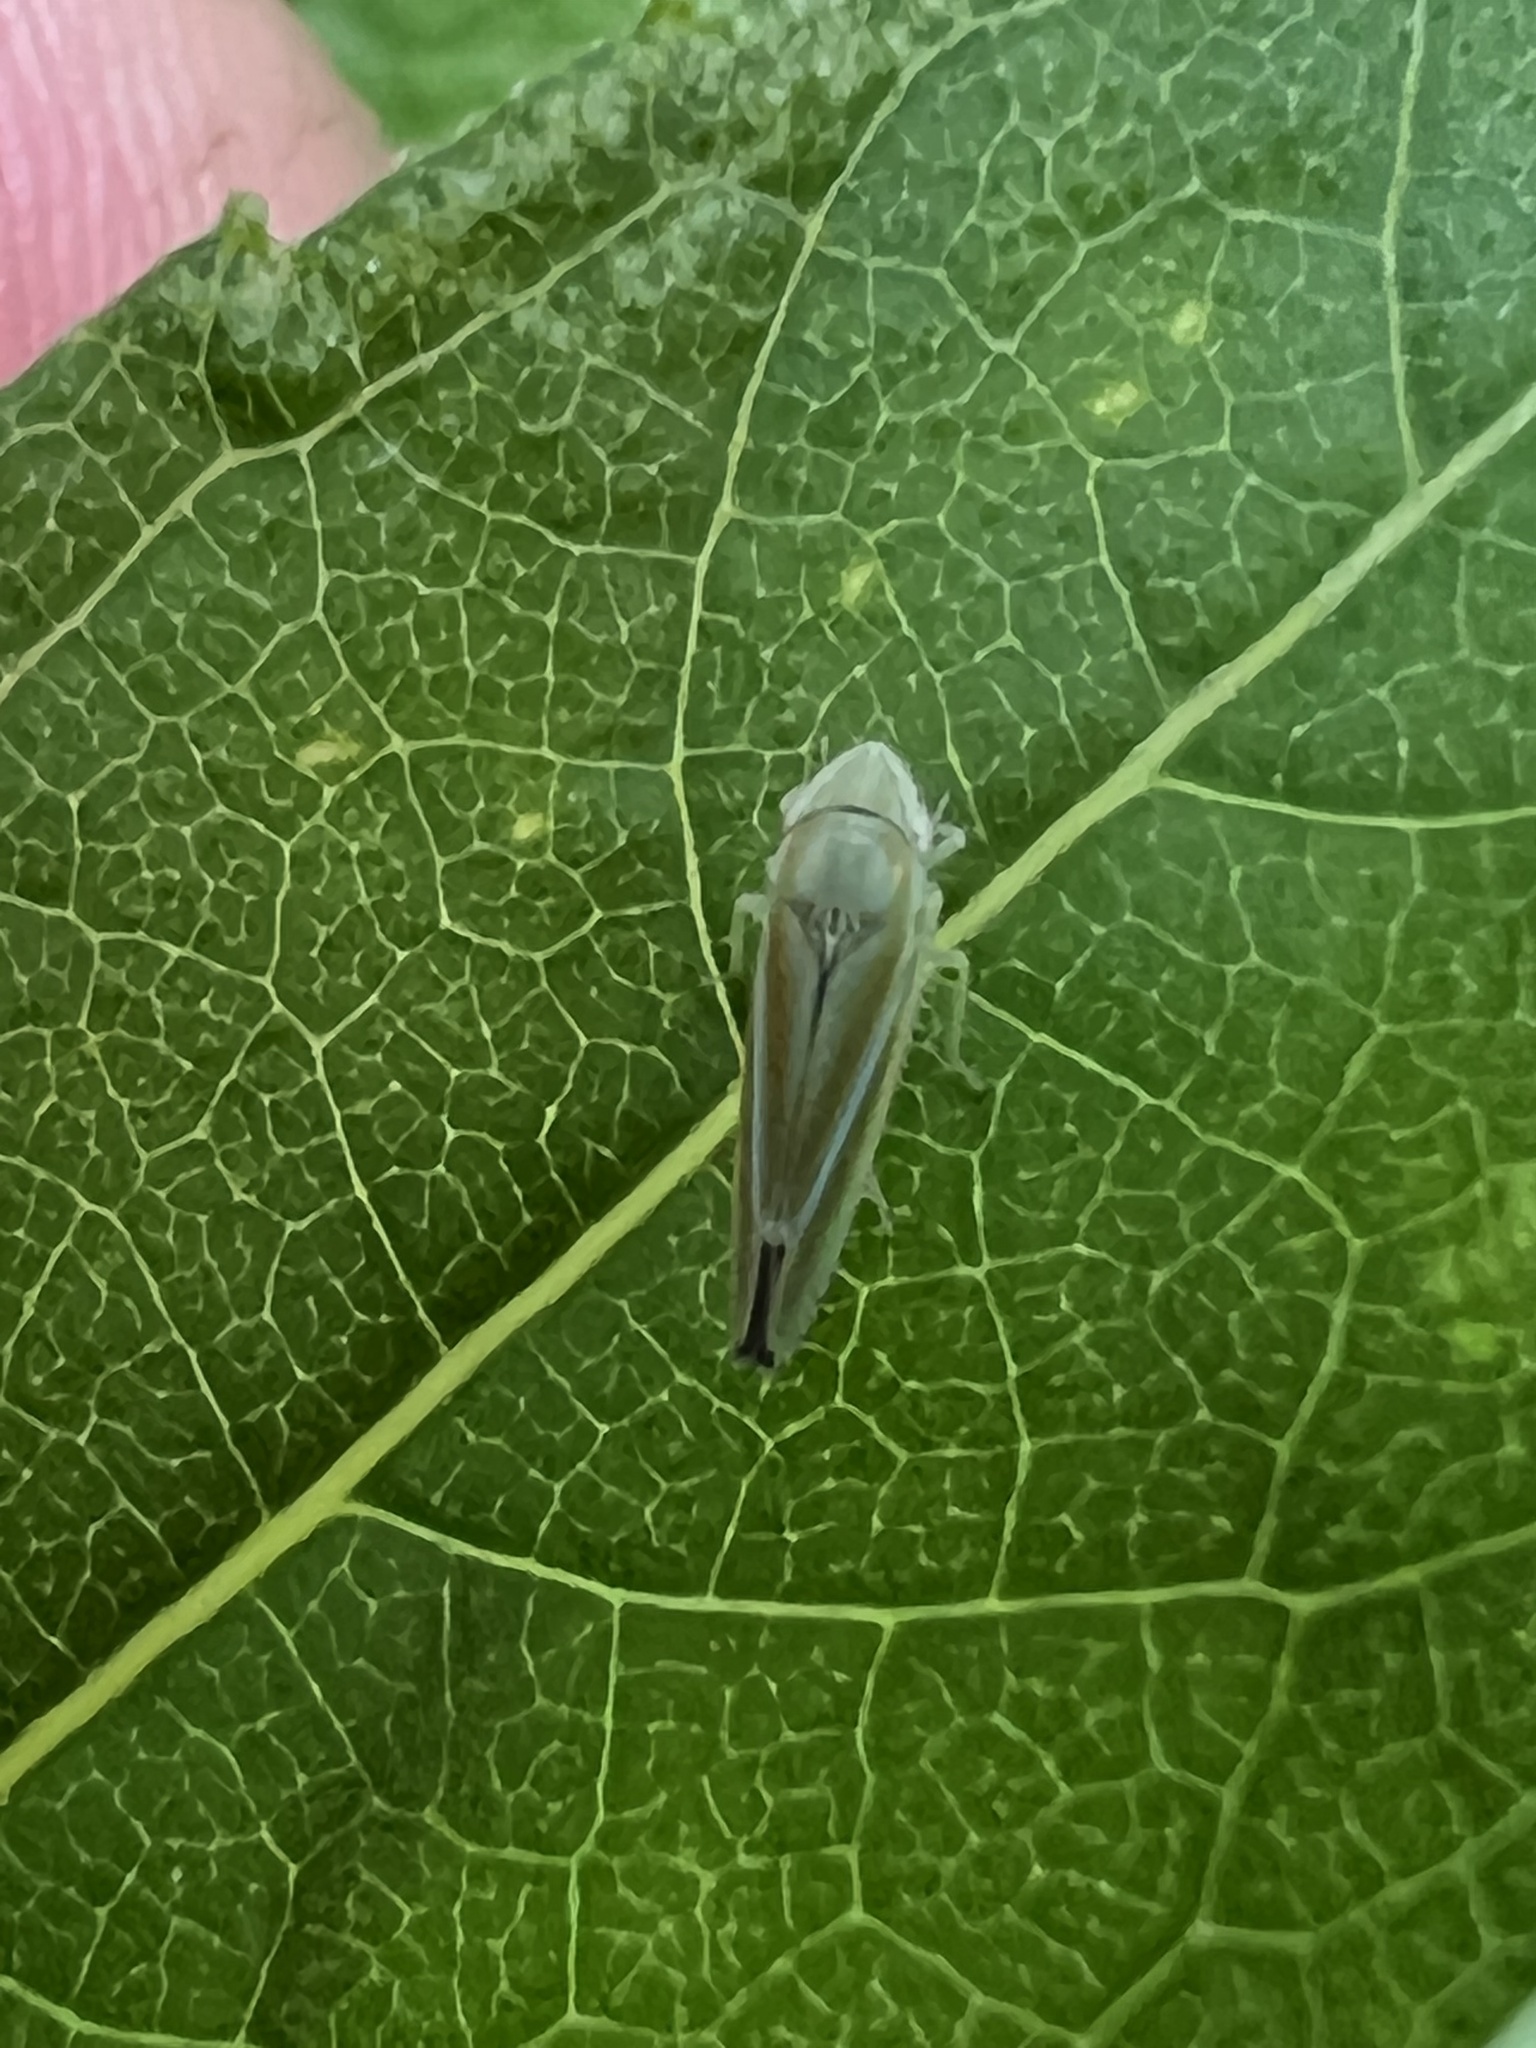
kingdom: Animalia
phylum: Arthropoda
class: Insecta
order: Hemiptera
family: Cicadellidae
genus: Graphocephala
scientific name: Graphocephala versuta
